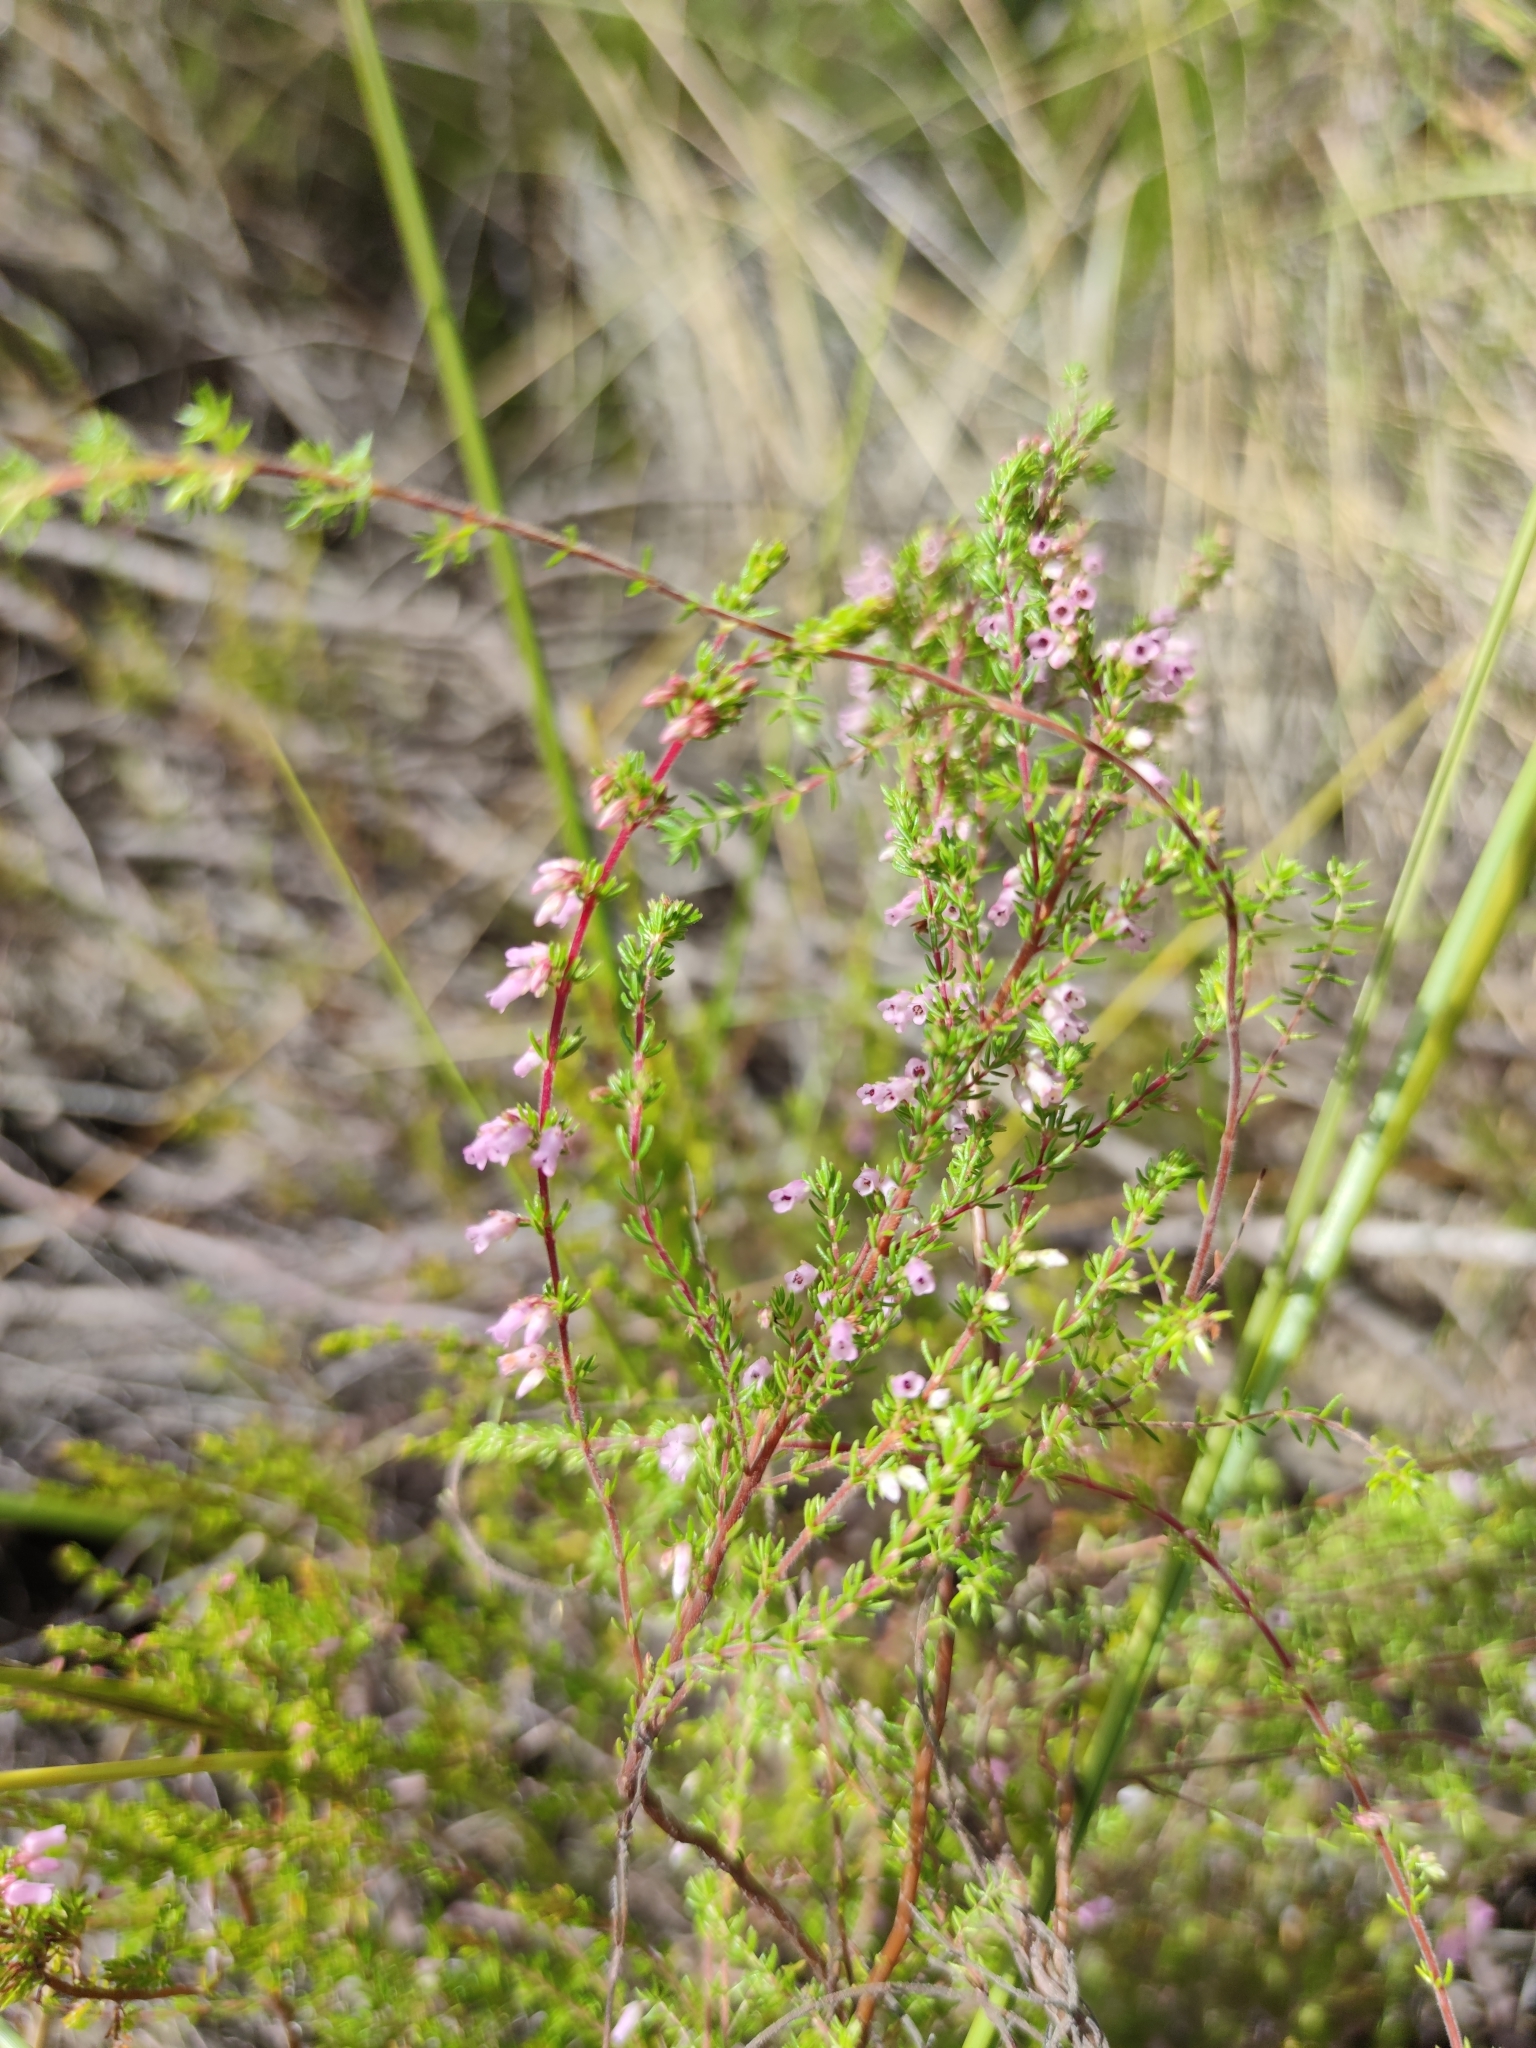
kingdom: Plantae
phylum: Tracheophyta
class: Magnoliopsida
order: Ericales
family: Ericaceae
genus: Erica
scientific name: Erica intervallaris
